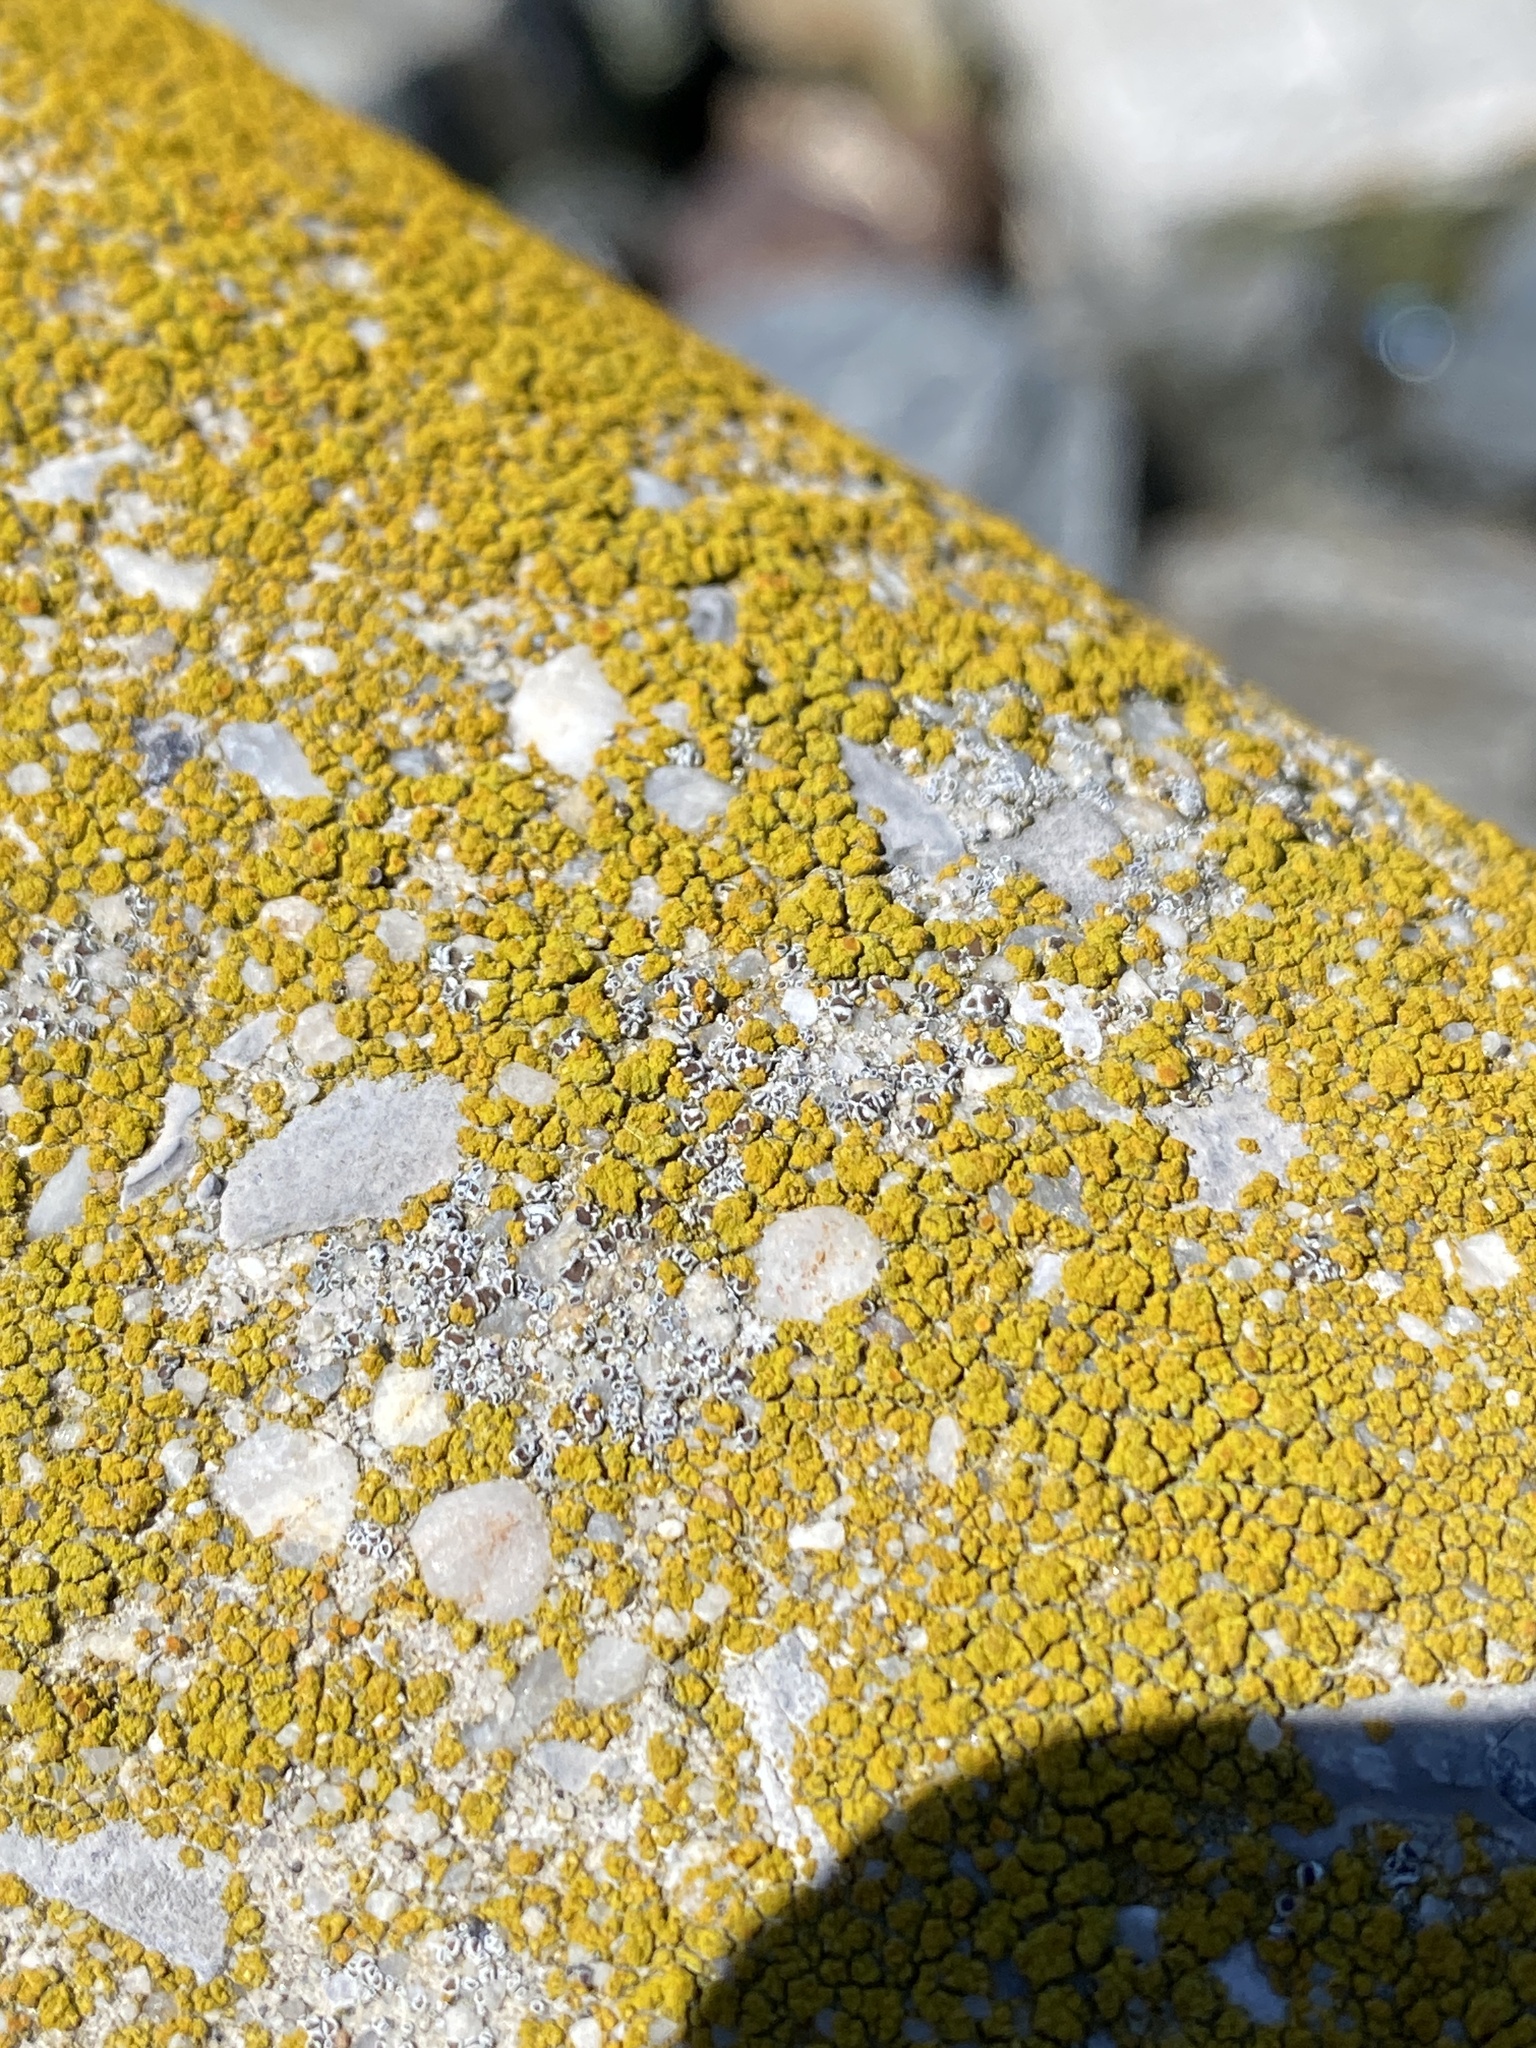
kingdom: Fungi
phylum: Ascomycota
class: Lecanoromycetes
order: Lecanorales
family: Lecanoraceae
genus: Polyozosia
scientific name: Polyozosia dispersa
